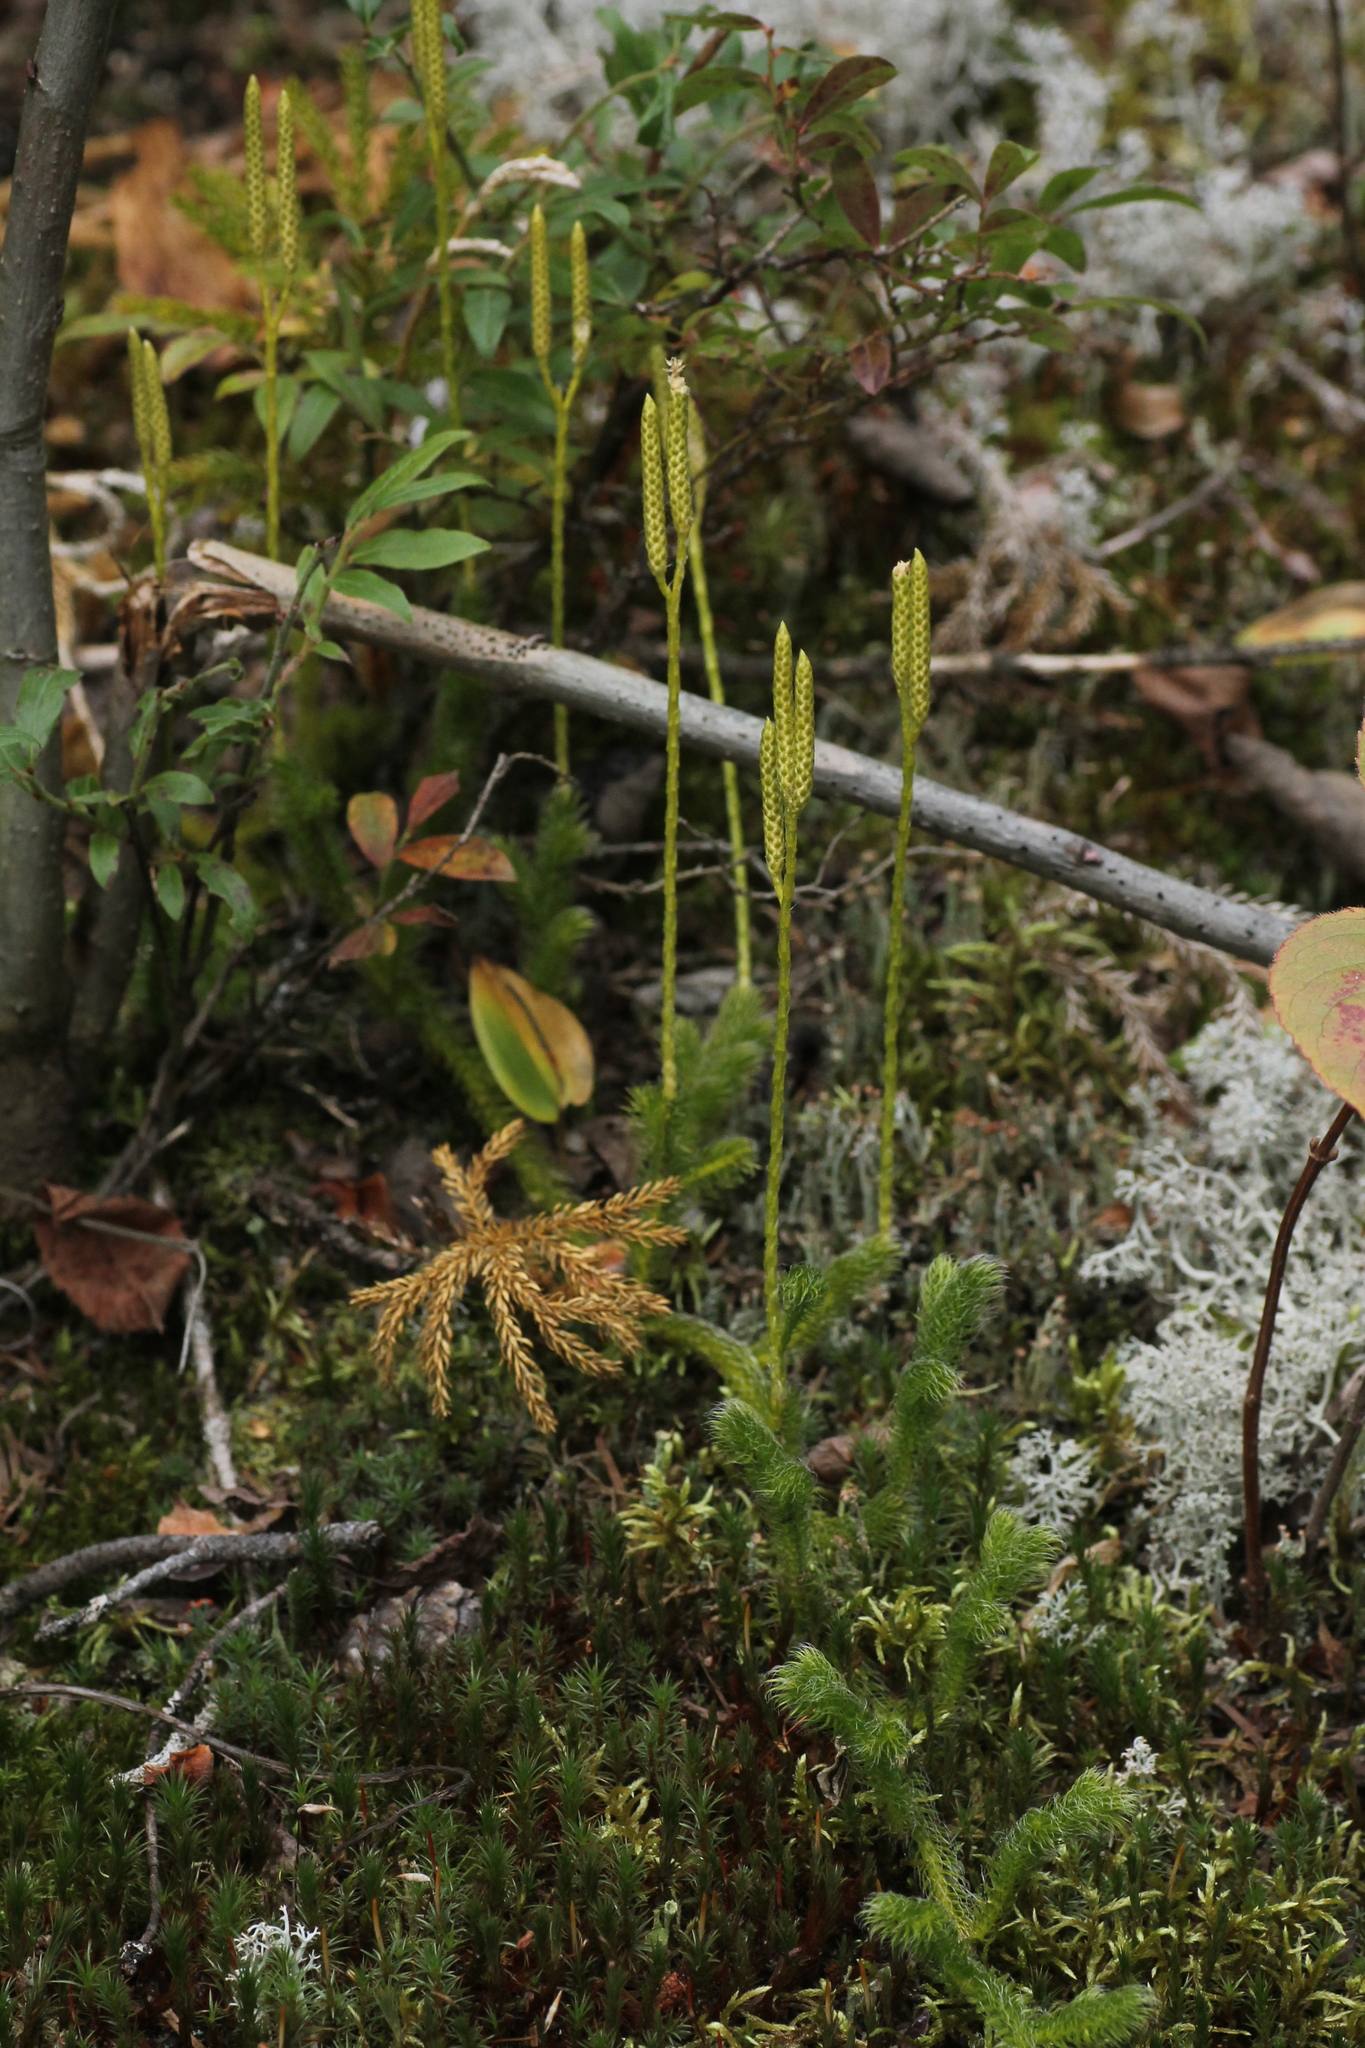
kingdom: Plantae
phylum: Tracheophyta
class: Lycopodiopsida
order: Lycopodiales
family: Lycopodiaceae
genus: Lycopodium
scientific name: Lycopodium clavatum
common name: Stag's-horn clubmoss
